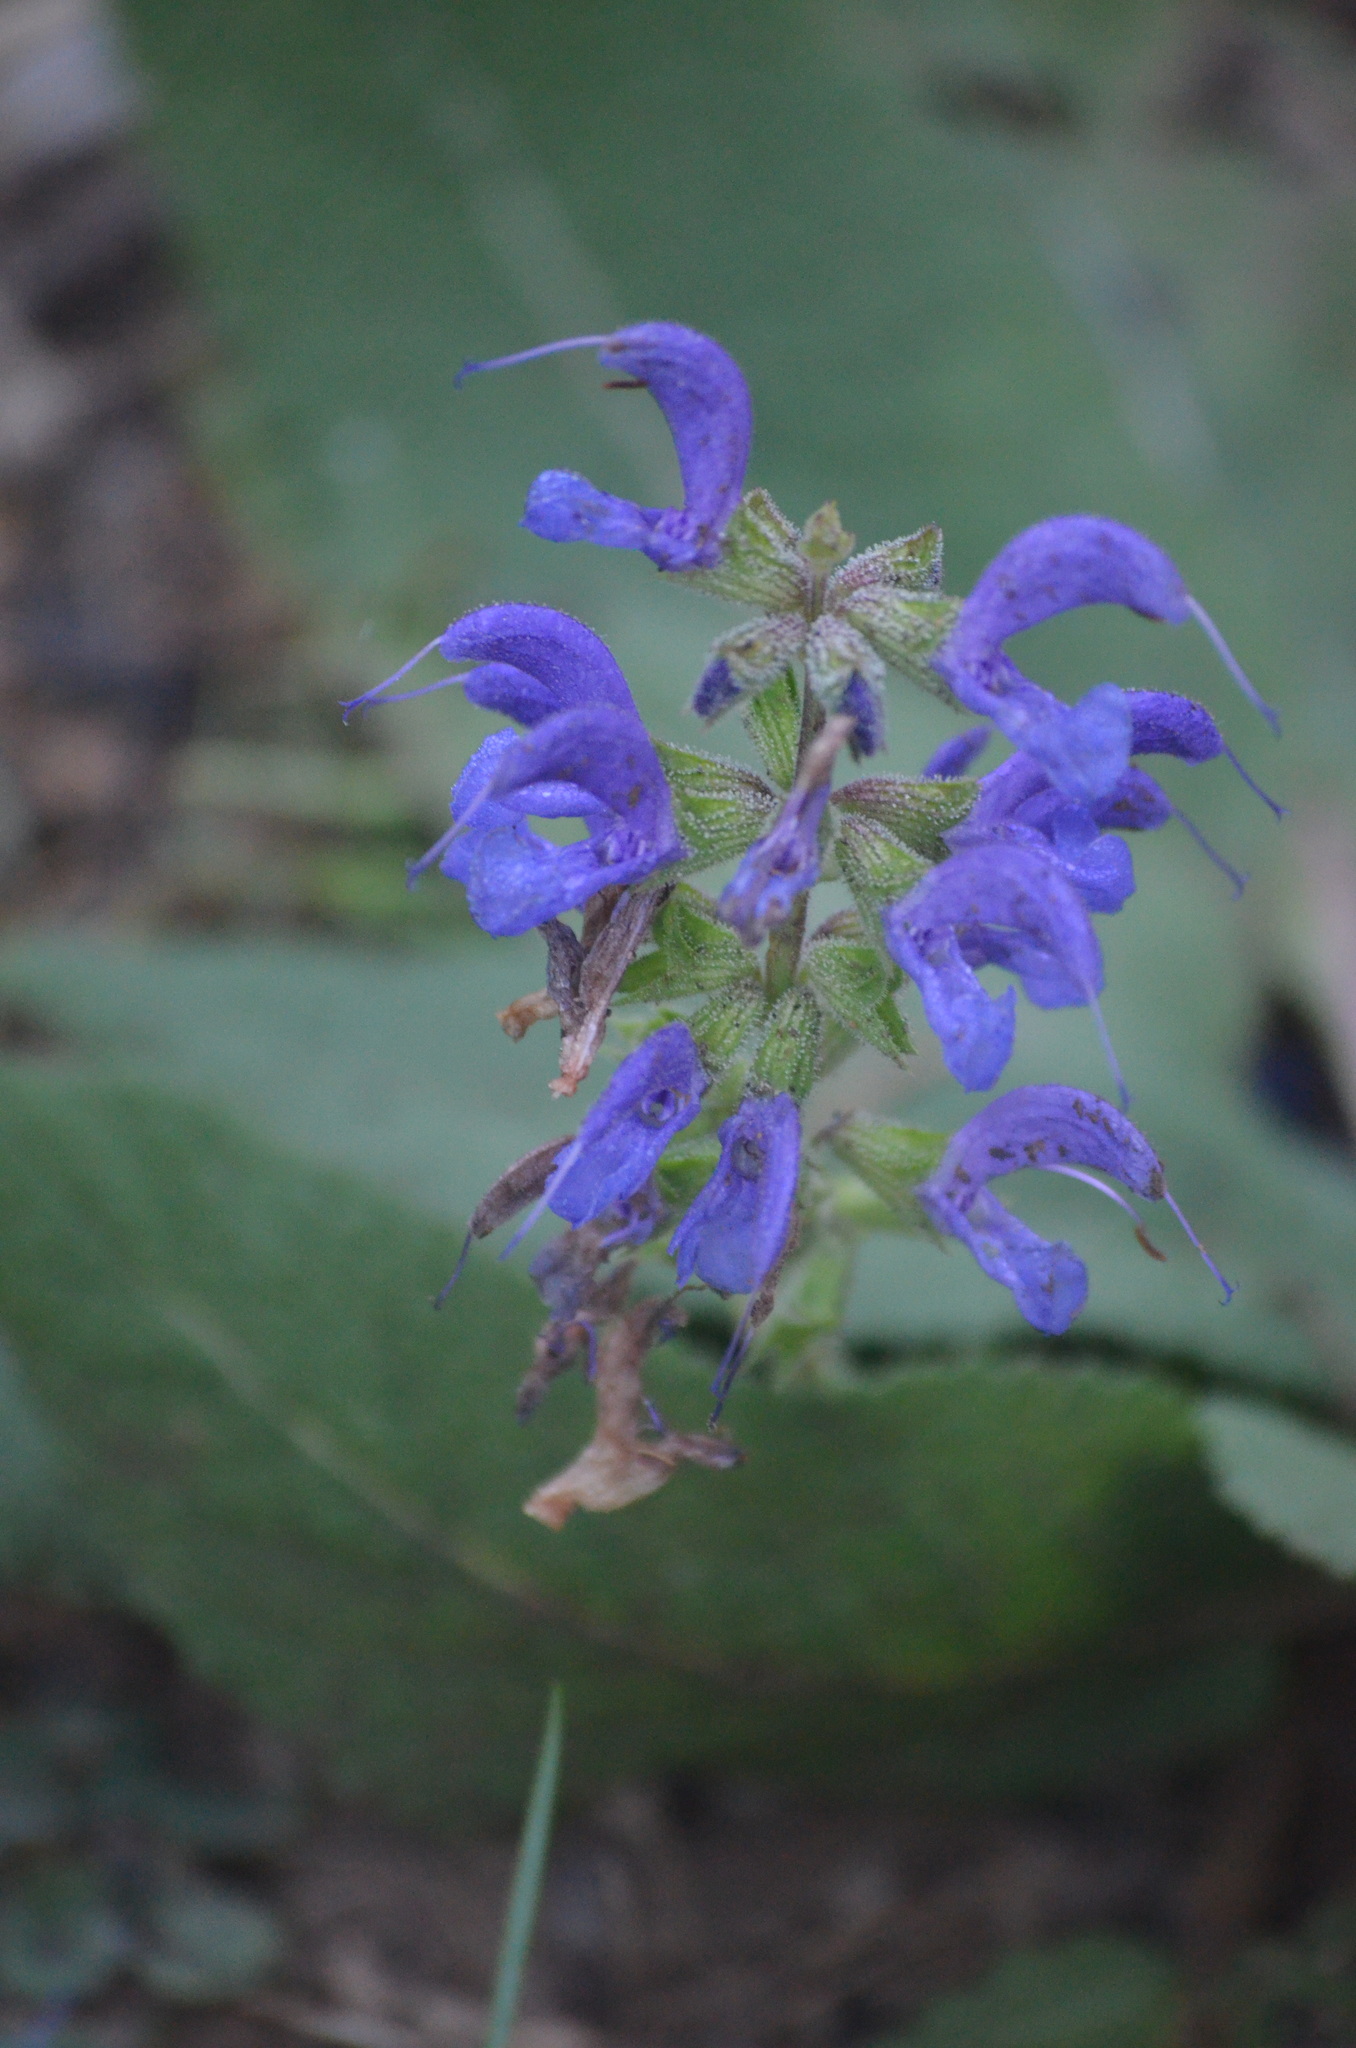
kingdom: Plantae
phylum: Tracheophyta
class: Magnoliopsida
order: Lamiales
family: Lamiaceae
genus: Salvia
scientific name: Salvia pratensis
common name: Meadow sage
